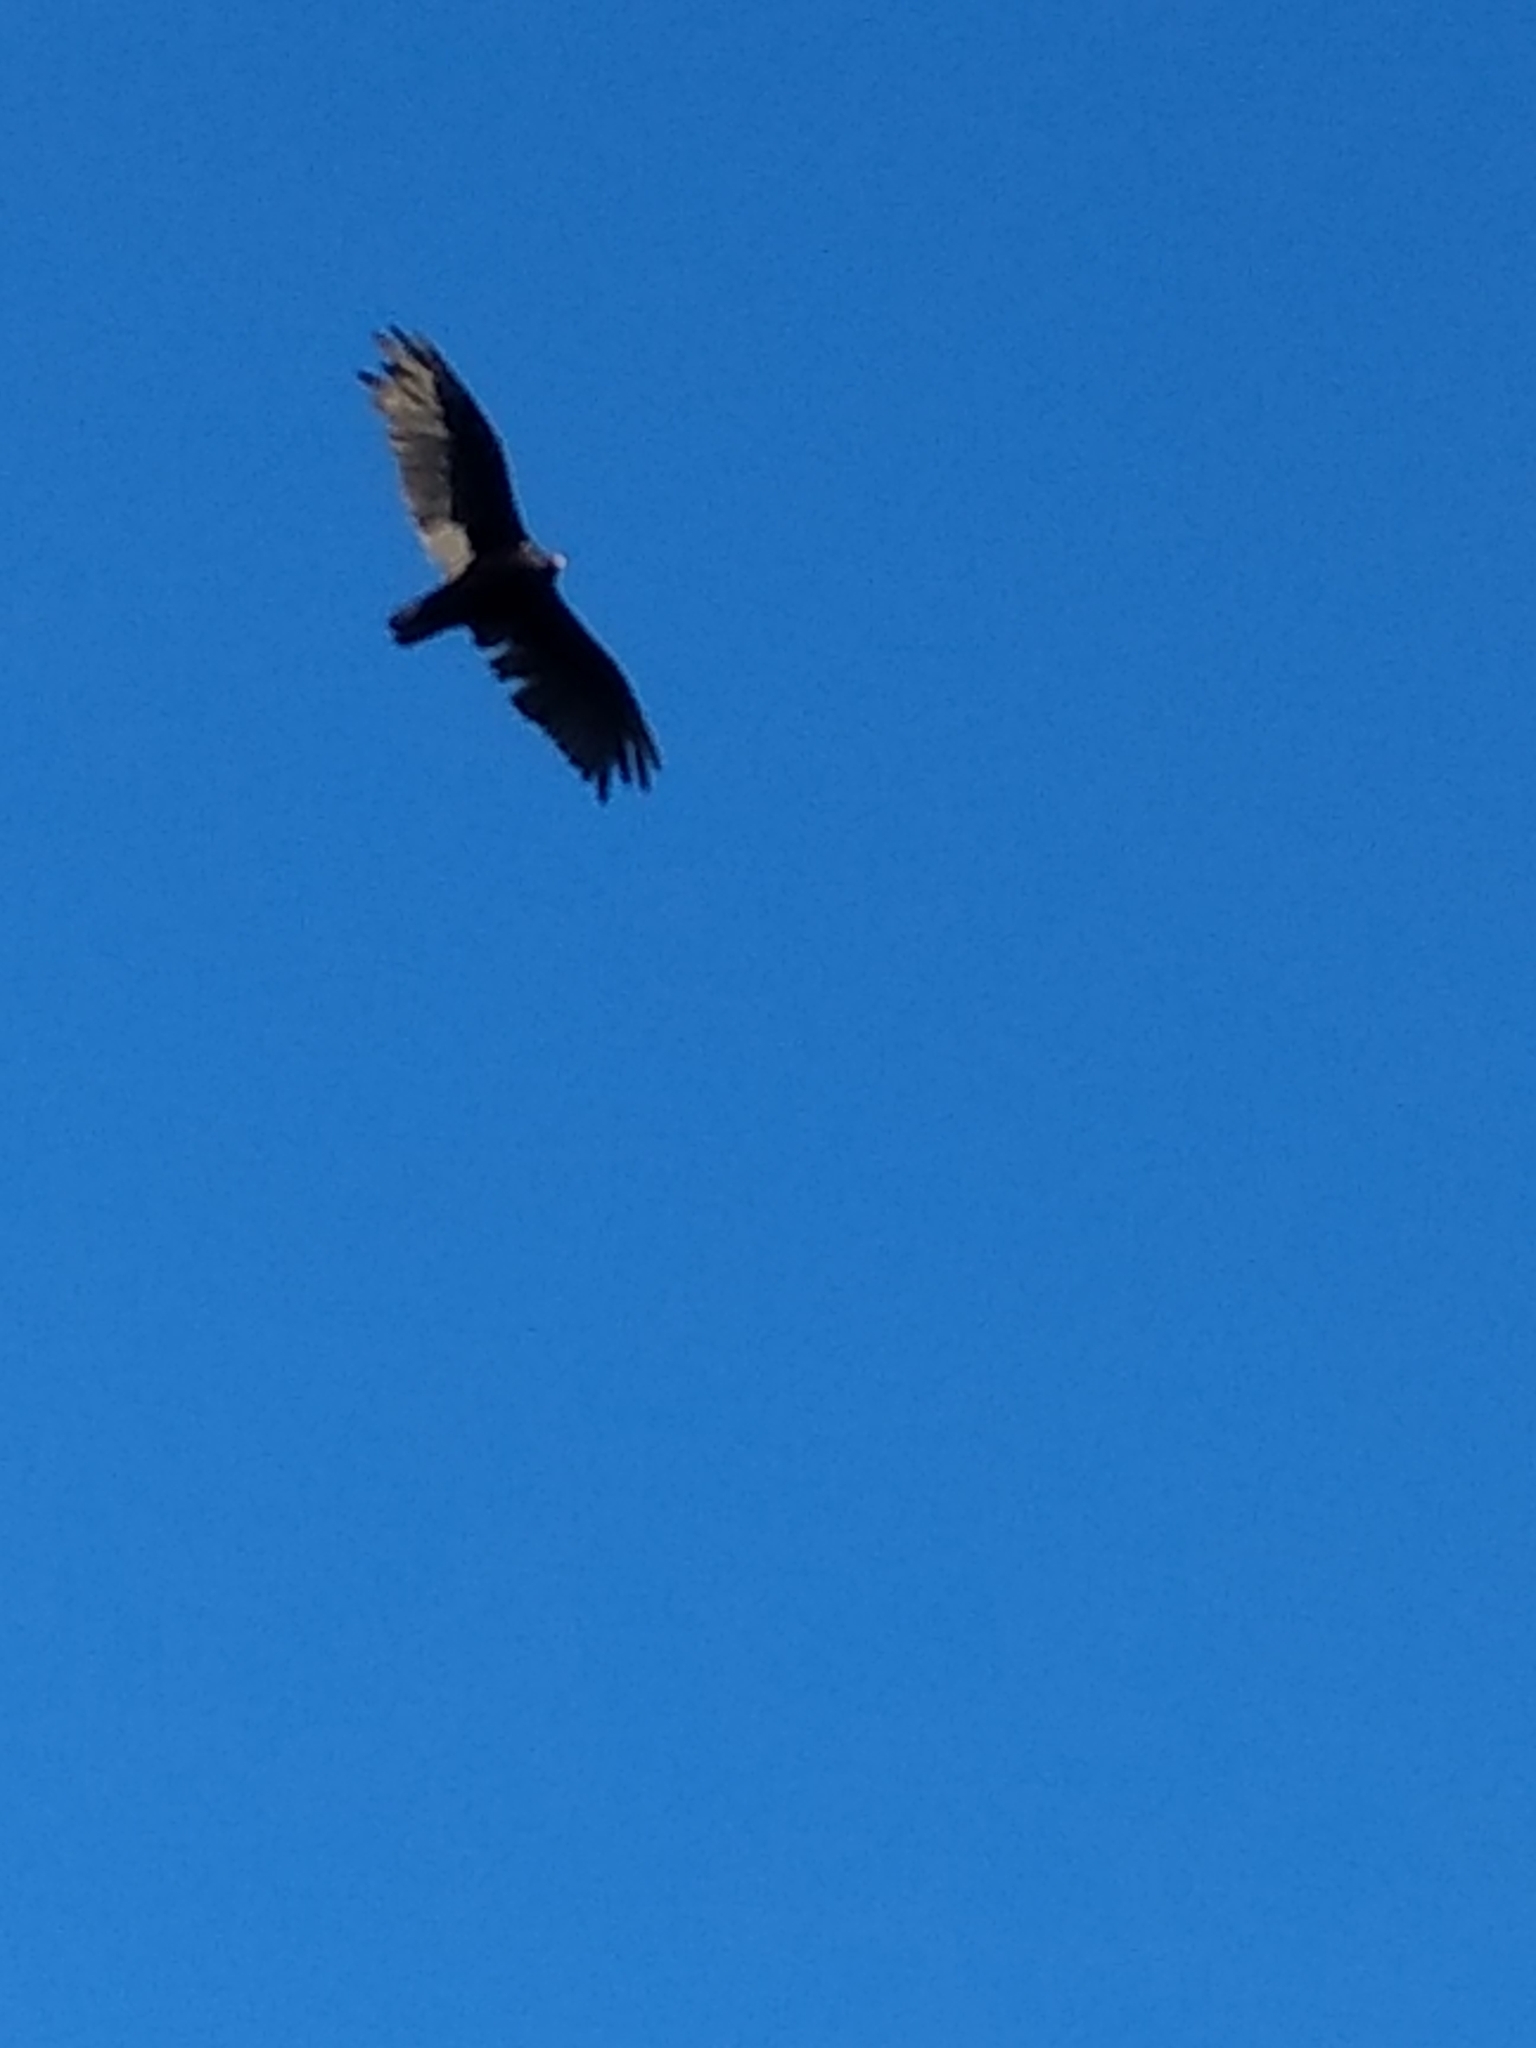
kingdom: Animalia
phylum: Chordata
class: Aves
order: Accipitriformes
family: Cathartidae
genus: Cathartes
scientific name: Cathartes aura
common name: Turkey vulture
